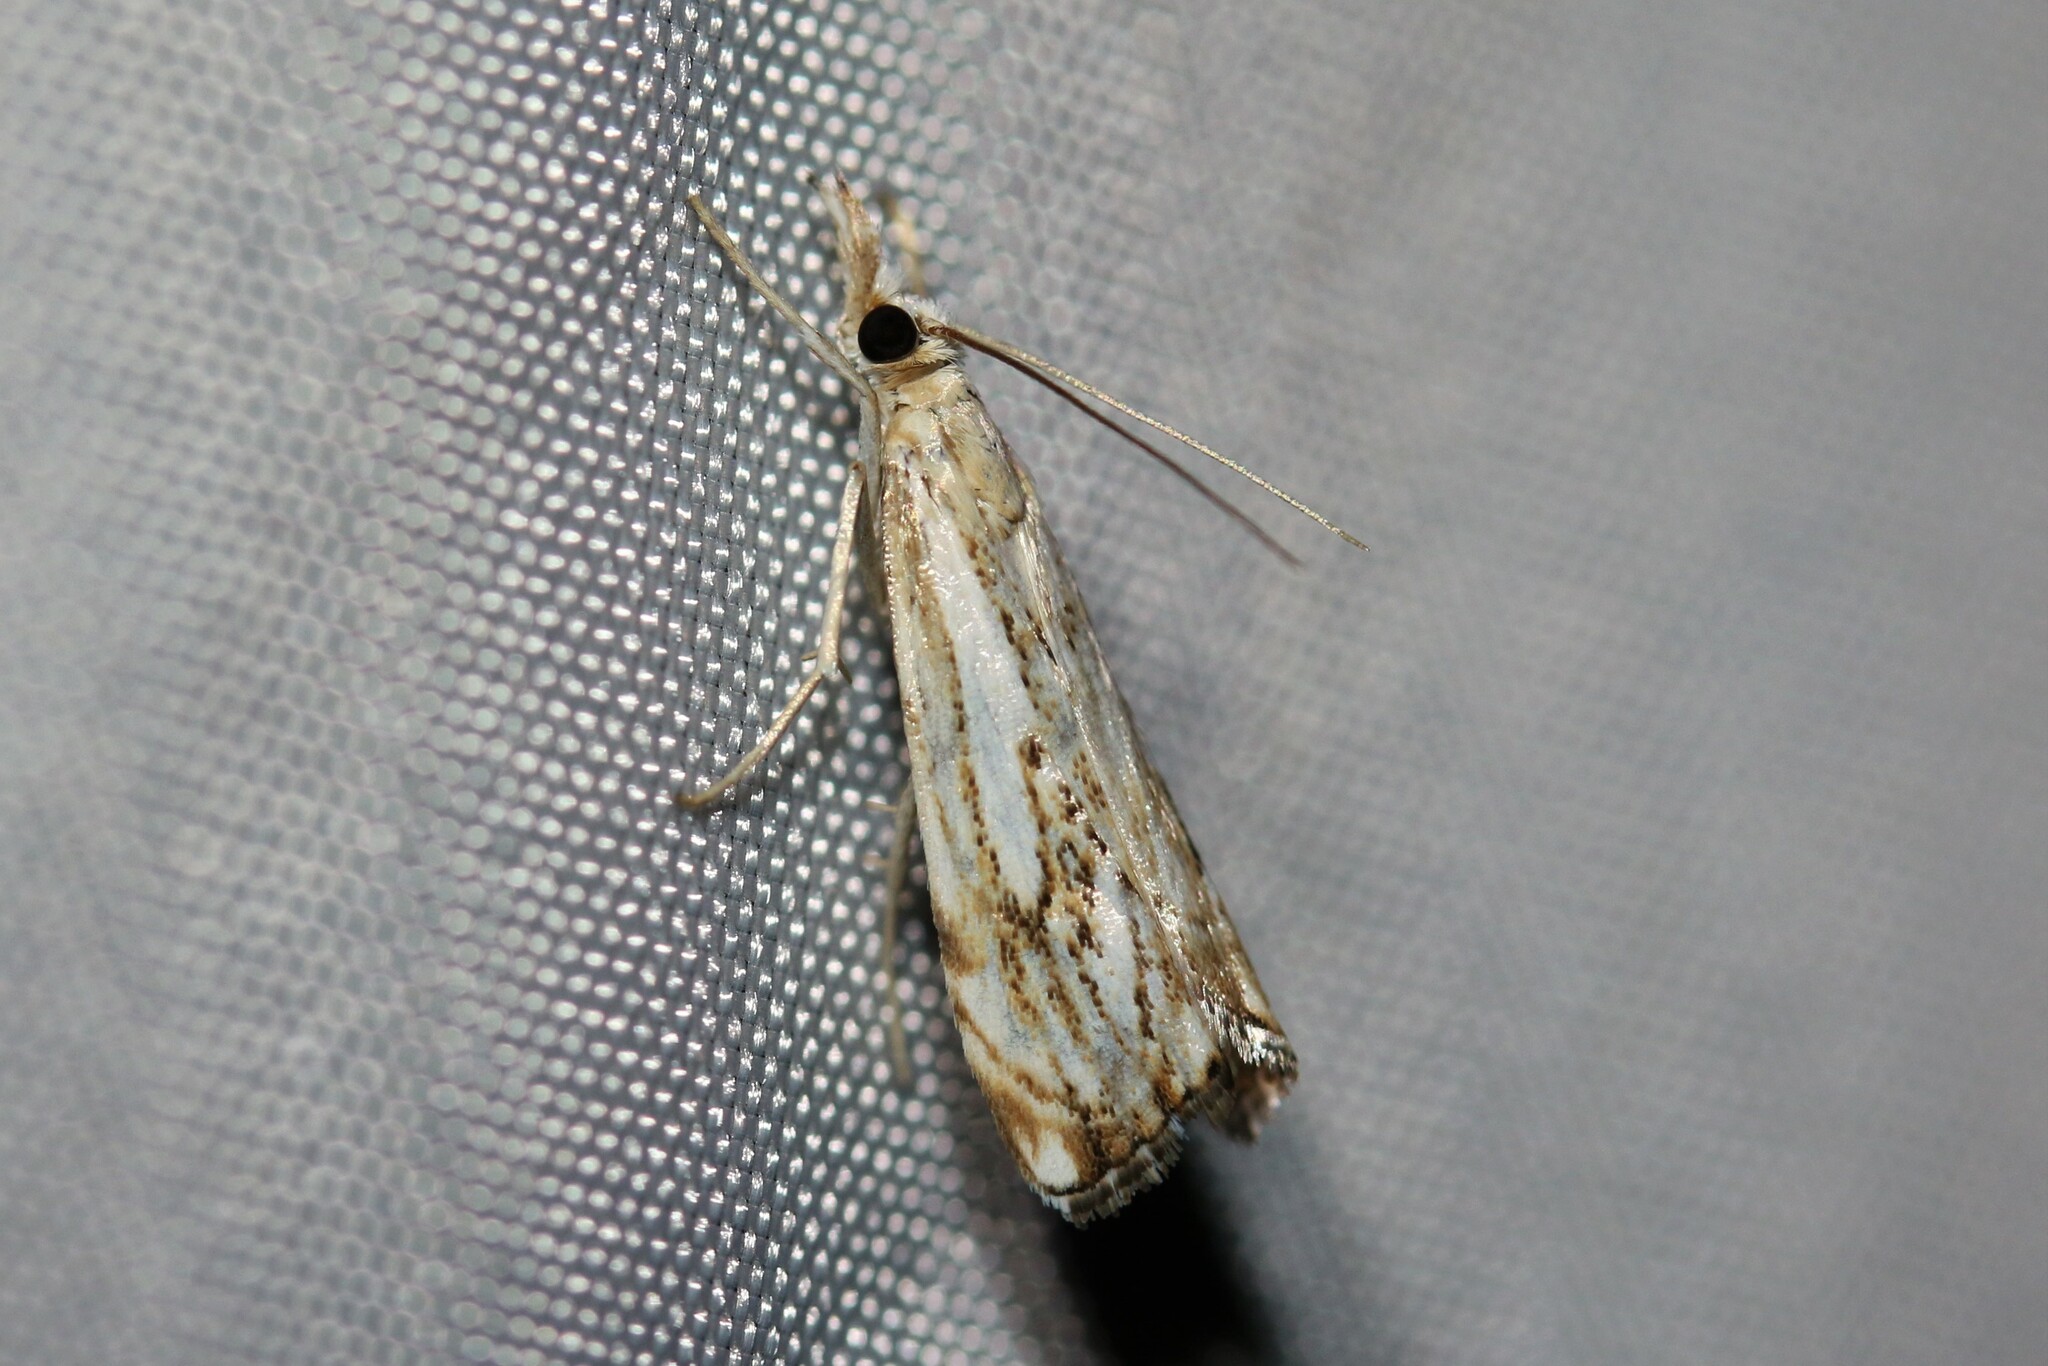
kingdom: Animalia
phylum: Arthropoda
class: Insecta
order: Lepidoptera
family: Crambidae
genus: Catoptria
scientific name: Catoptria falsella
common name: Chequered grass-veneer
